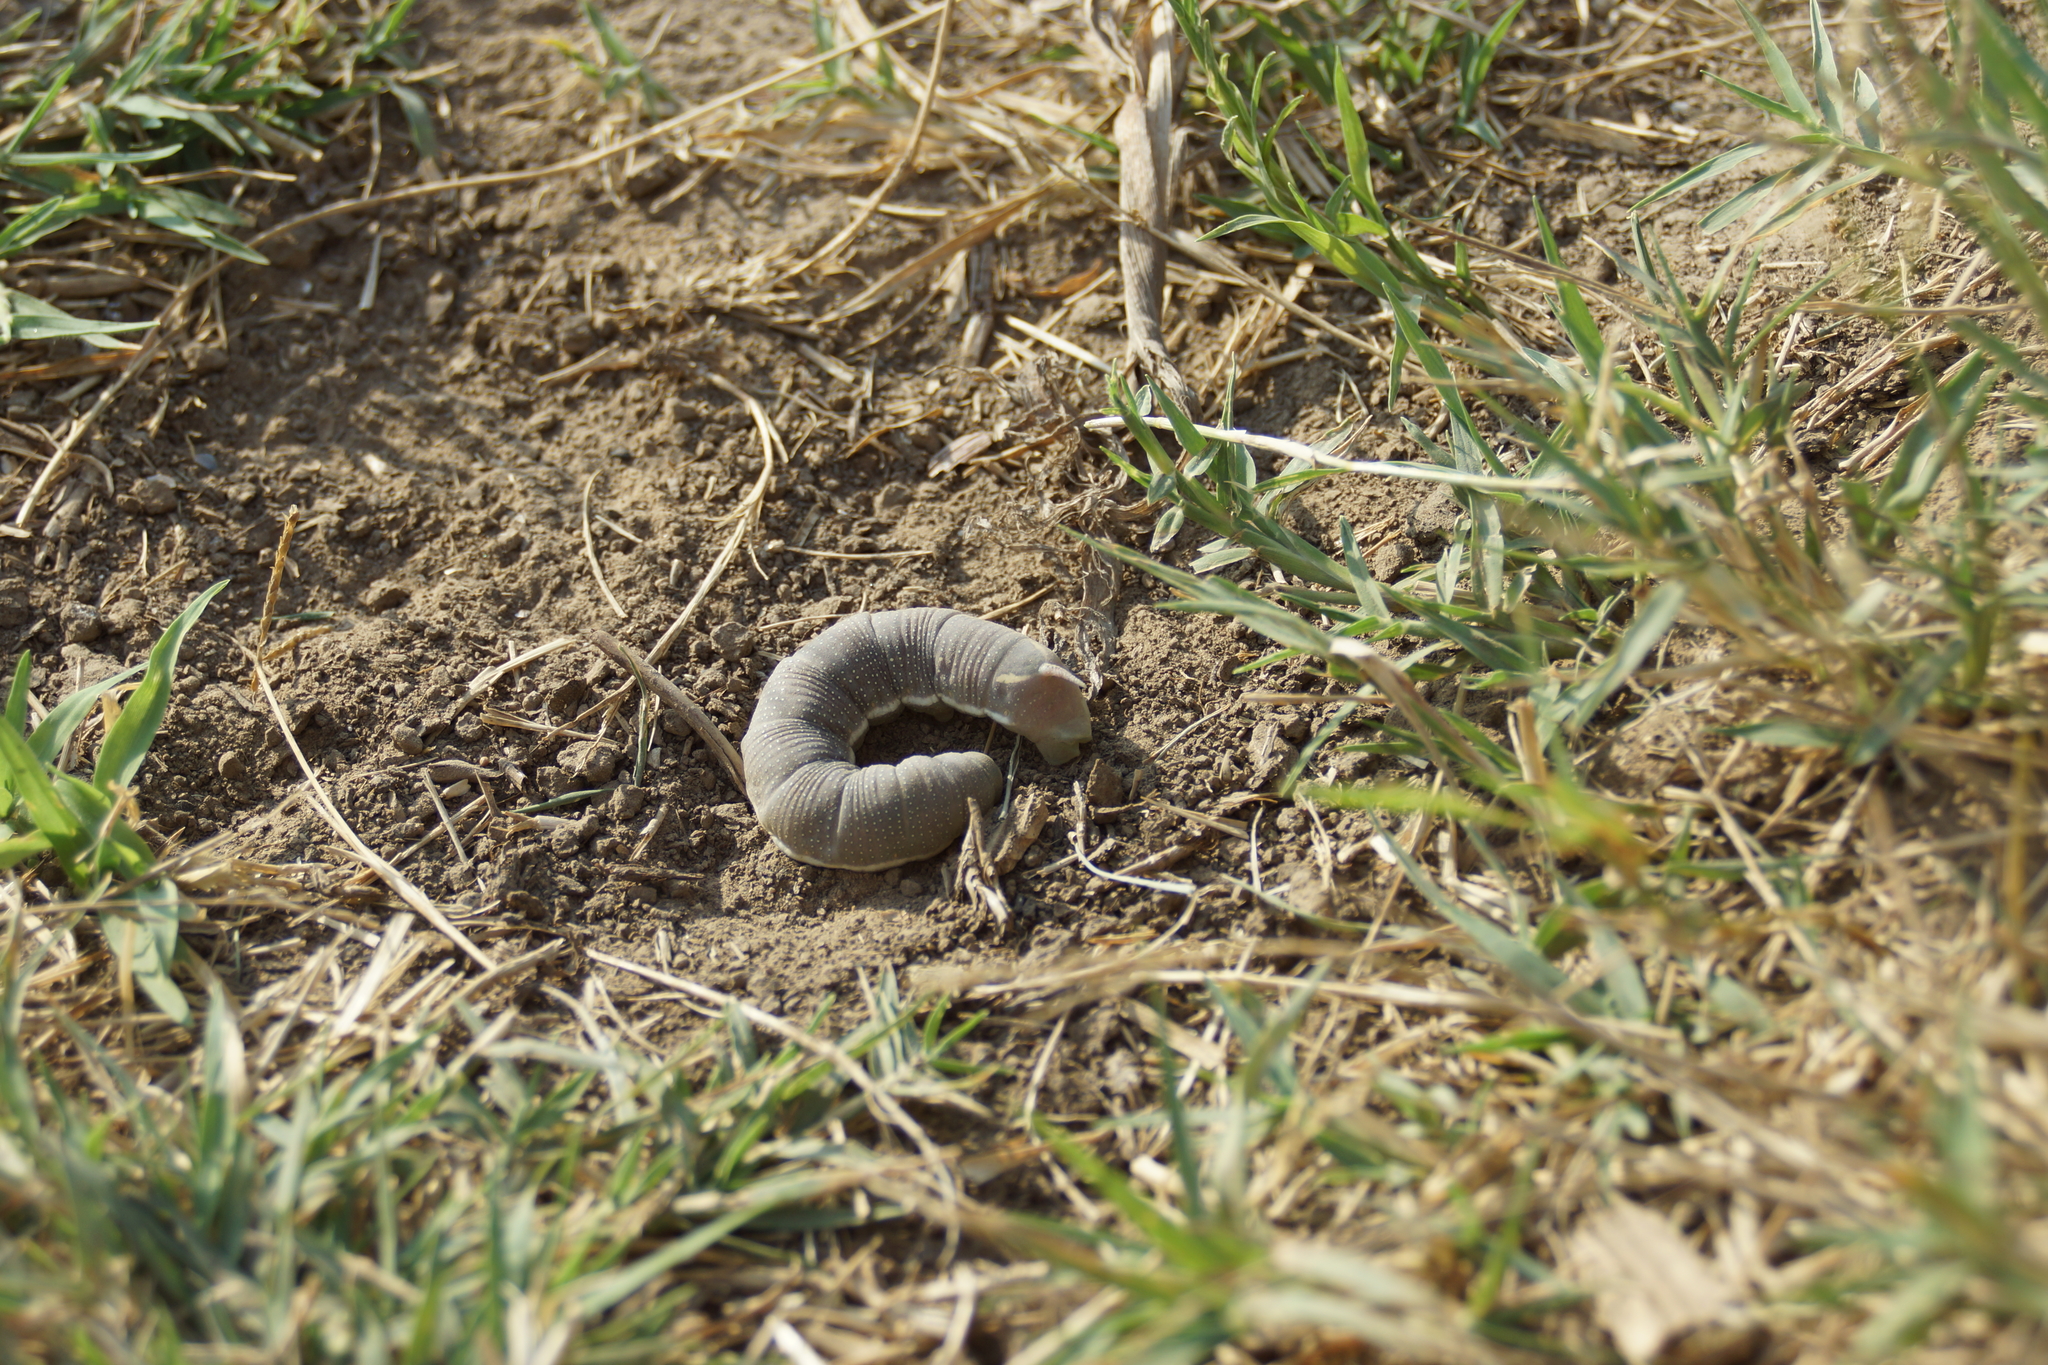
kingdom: Animalia
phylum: Arthropoda
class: Insecta
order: Lepidoptera
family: Sphingidae
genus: Hyles
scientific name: Hyles hippophaes
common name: Seathorn hawk-moth
